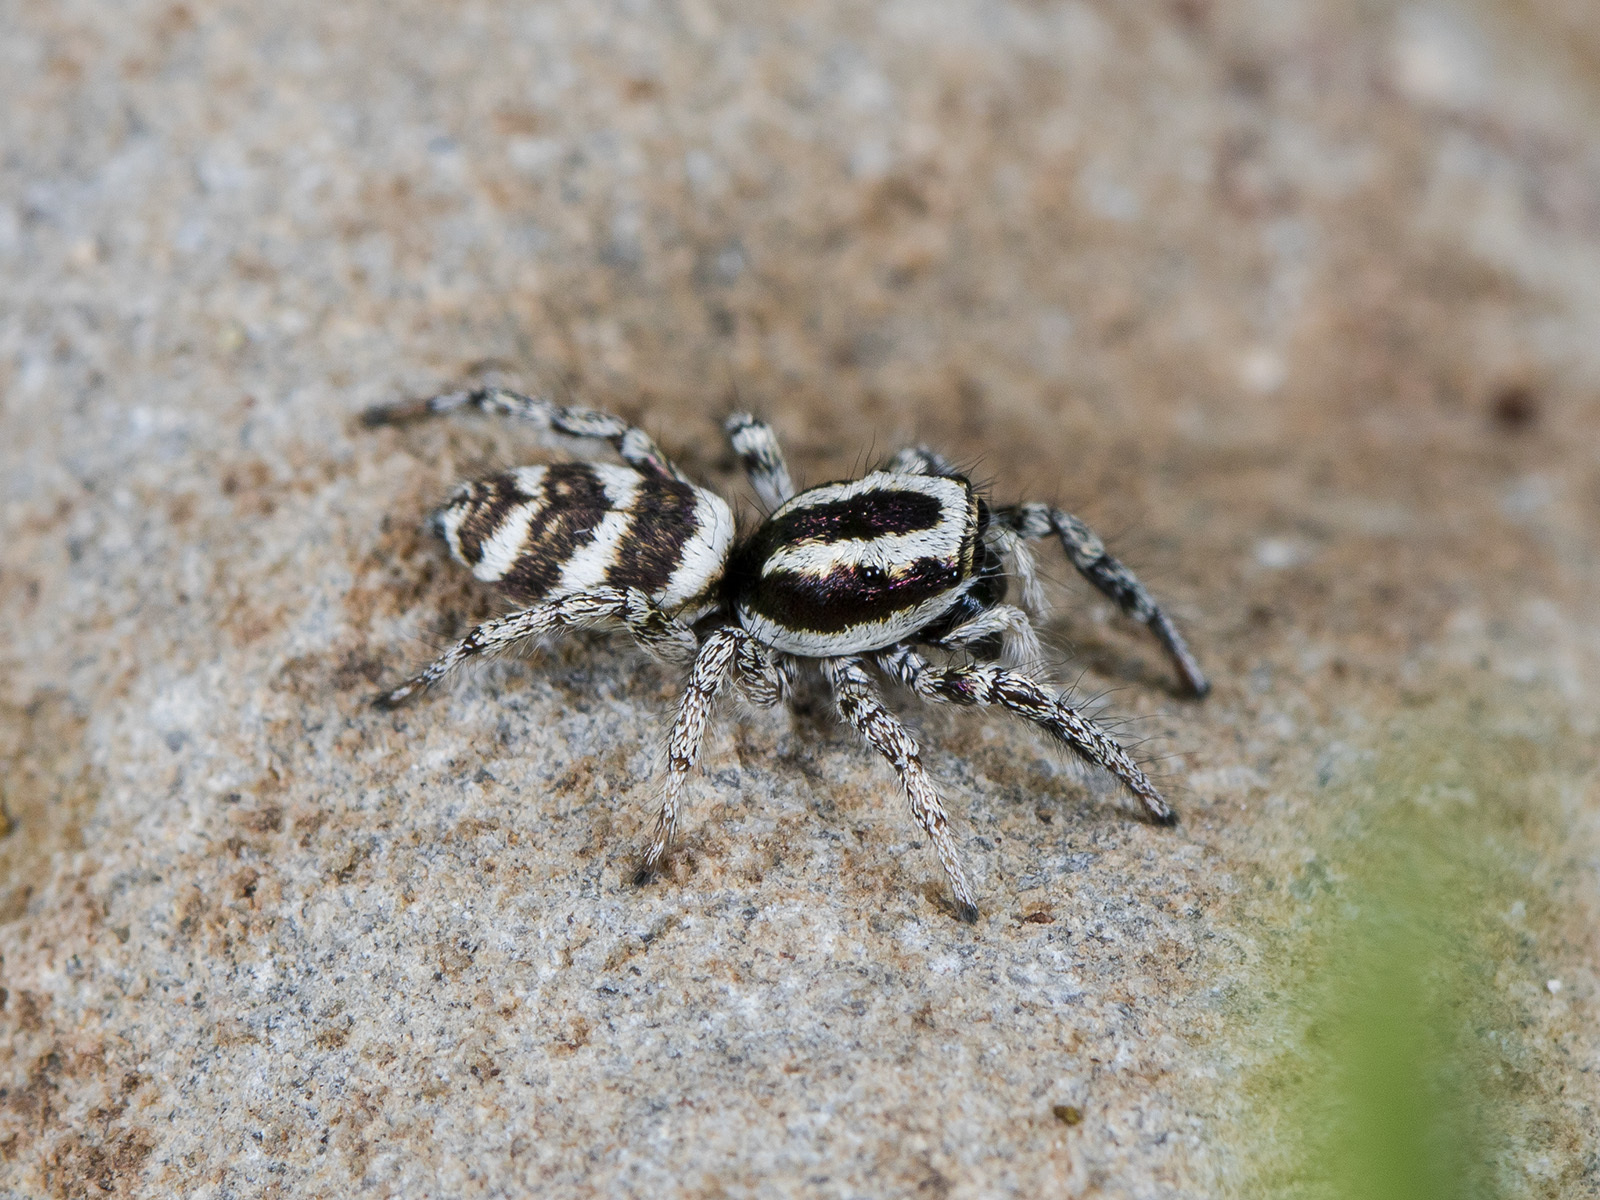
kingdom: Animalia
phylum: Arthropoda
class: Arachnida
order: Araneae
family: Salticidae
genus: Salticus
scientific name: Salticus tricinctus
